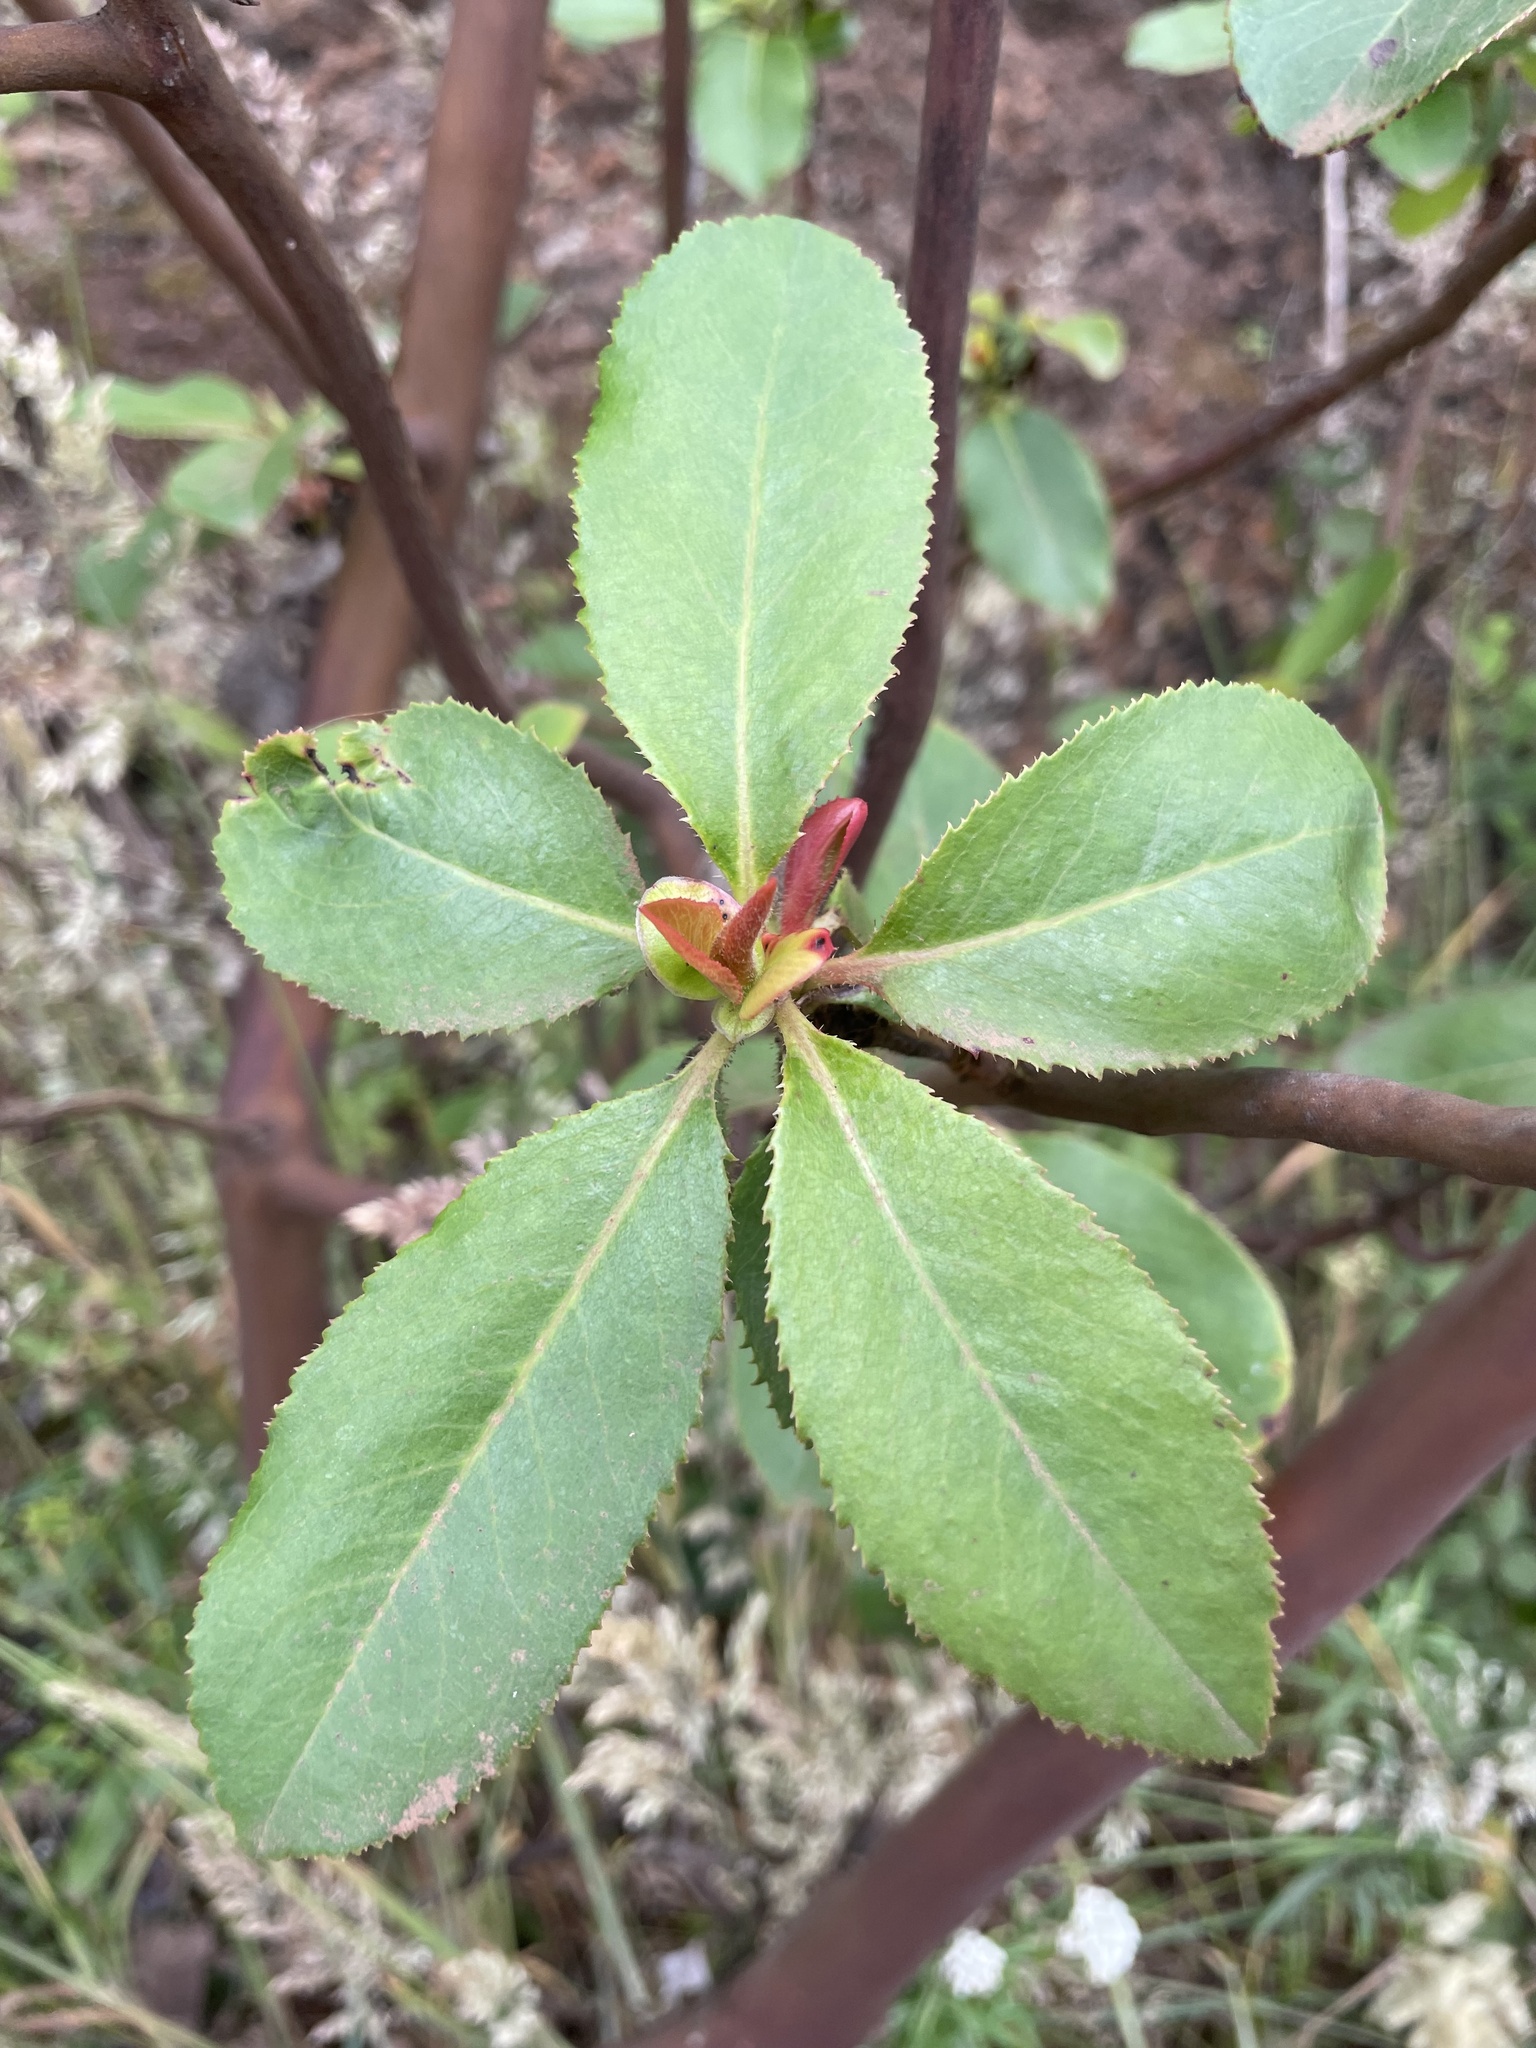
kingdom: Plantae
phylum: Tracheophyta
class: Magnoliopsida
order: Ericales
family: Ericaceae
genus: Arbutus
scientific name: Arbutus menziesii
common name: Pacific madrone
